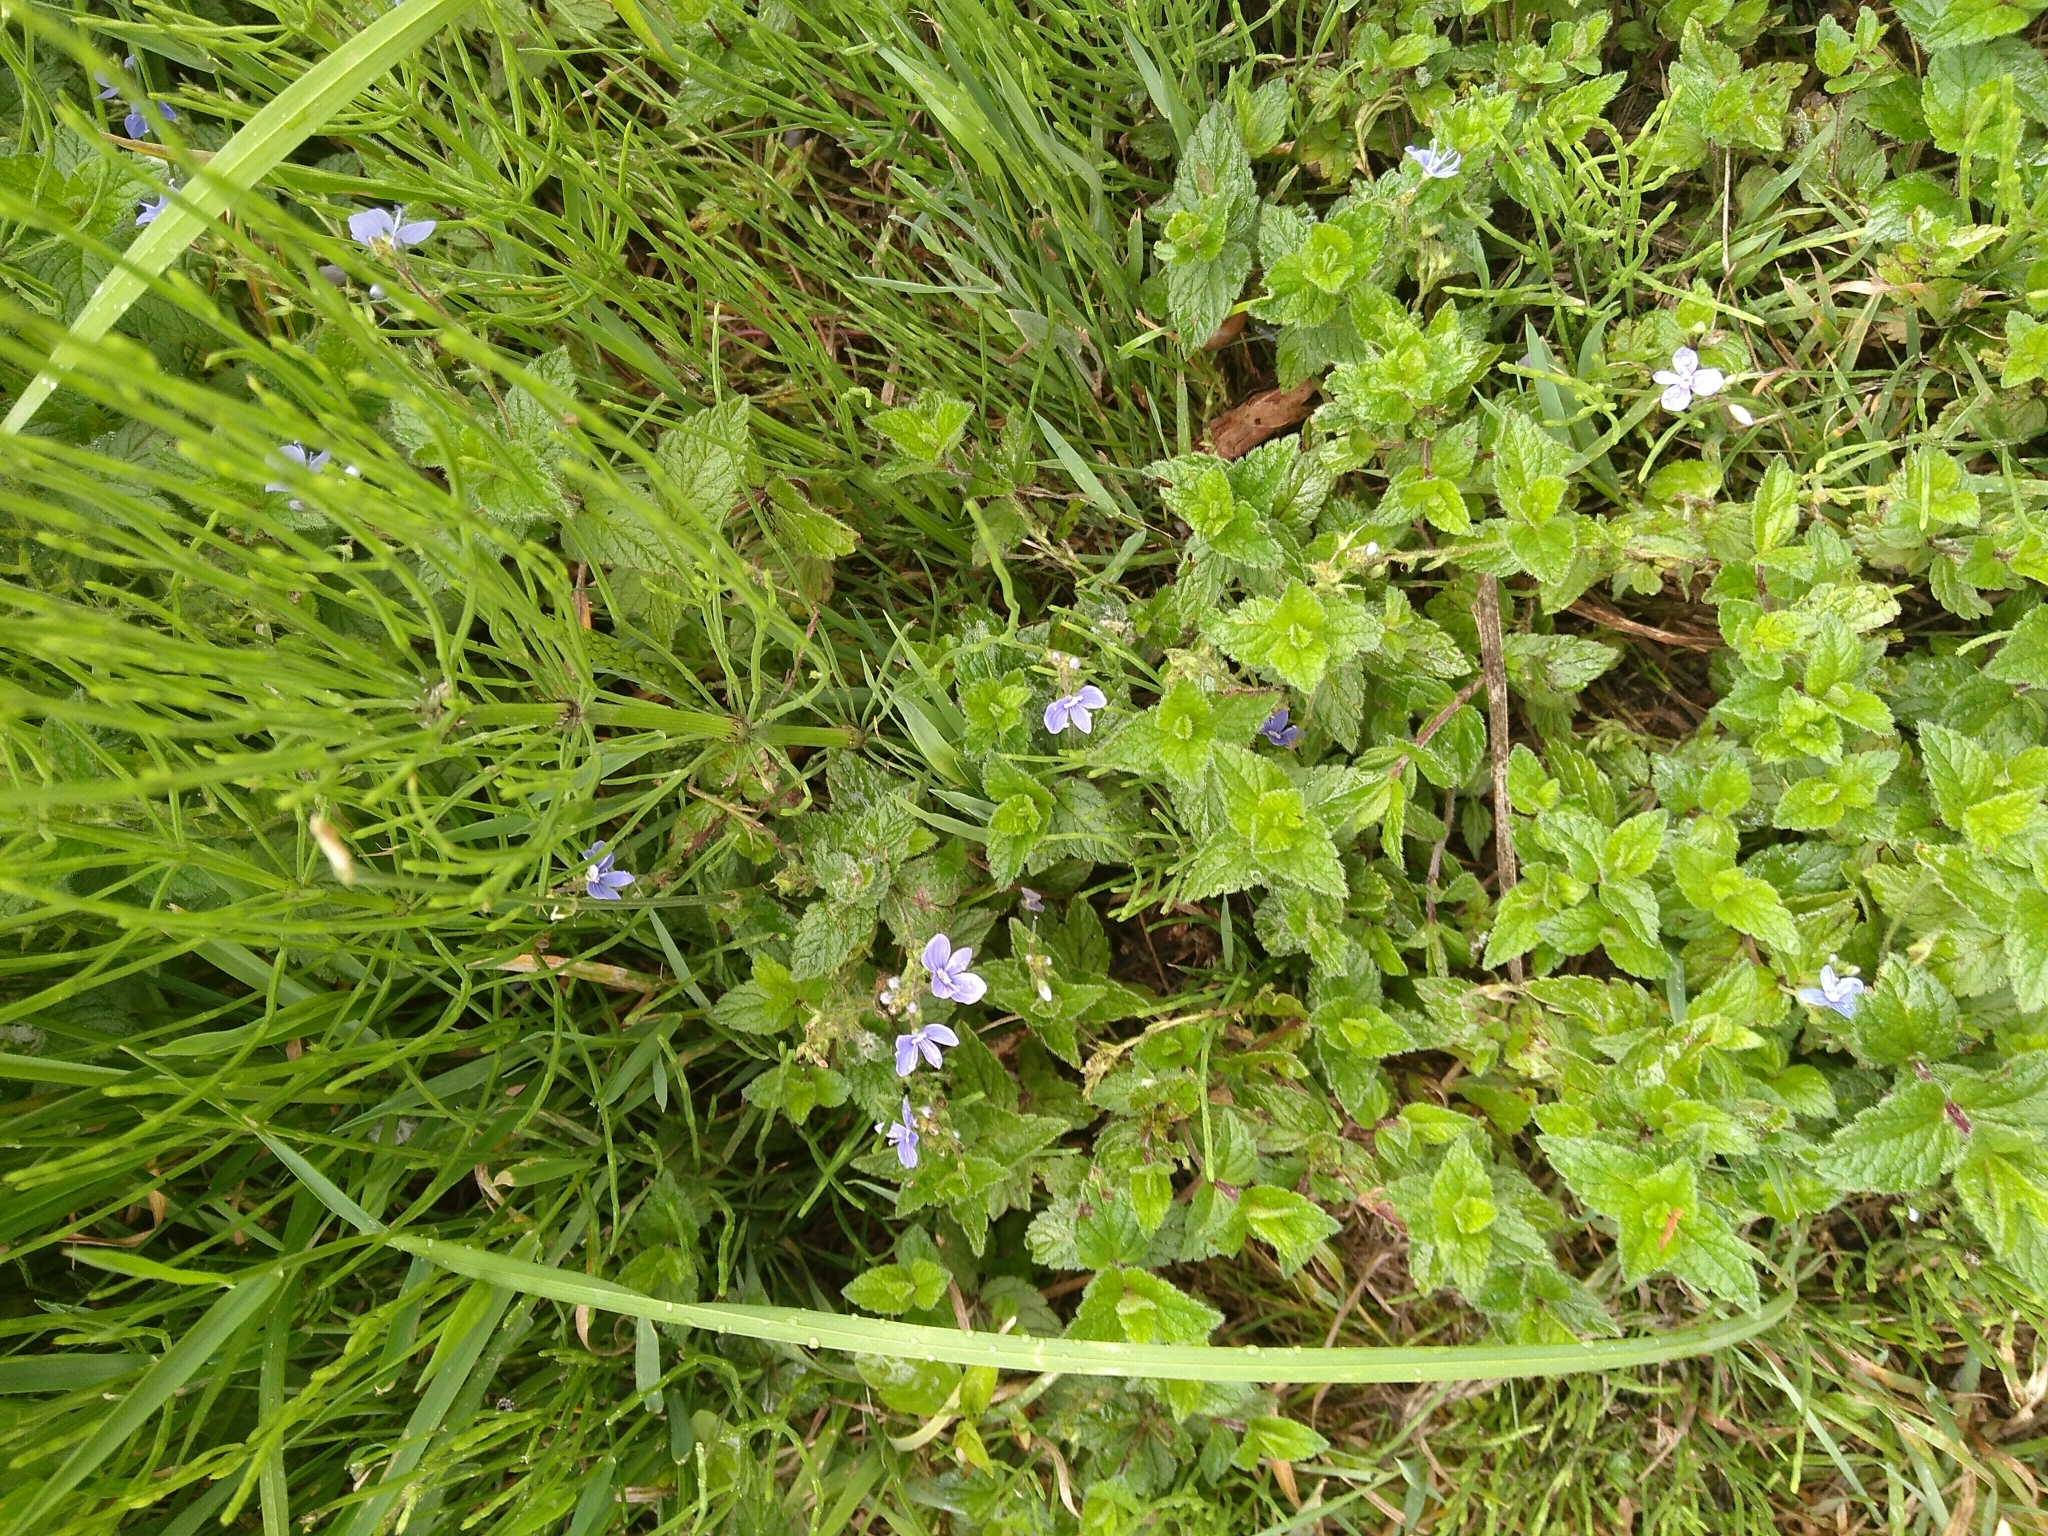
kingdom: Plantae
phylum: Tracheophyta
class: Magnoliopsida
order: Lamiales
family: Plantaginaceae
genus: Veronica
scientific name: Veronica chamaedrys
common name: Germander speedwell
